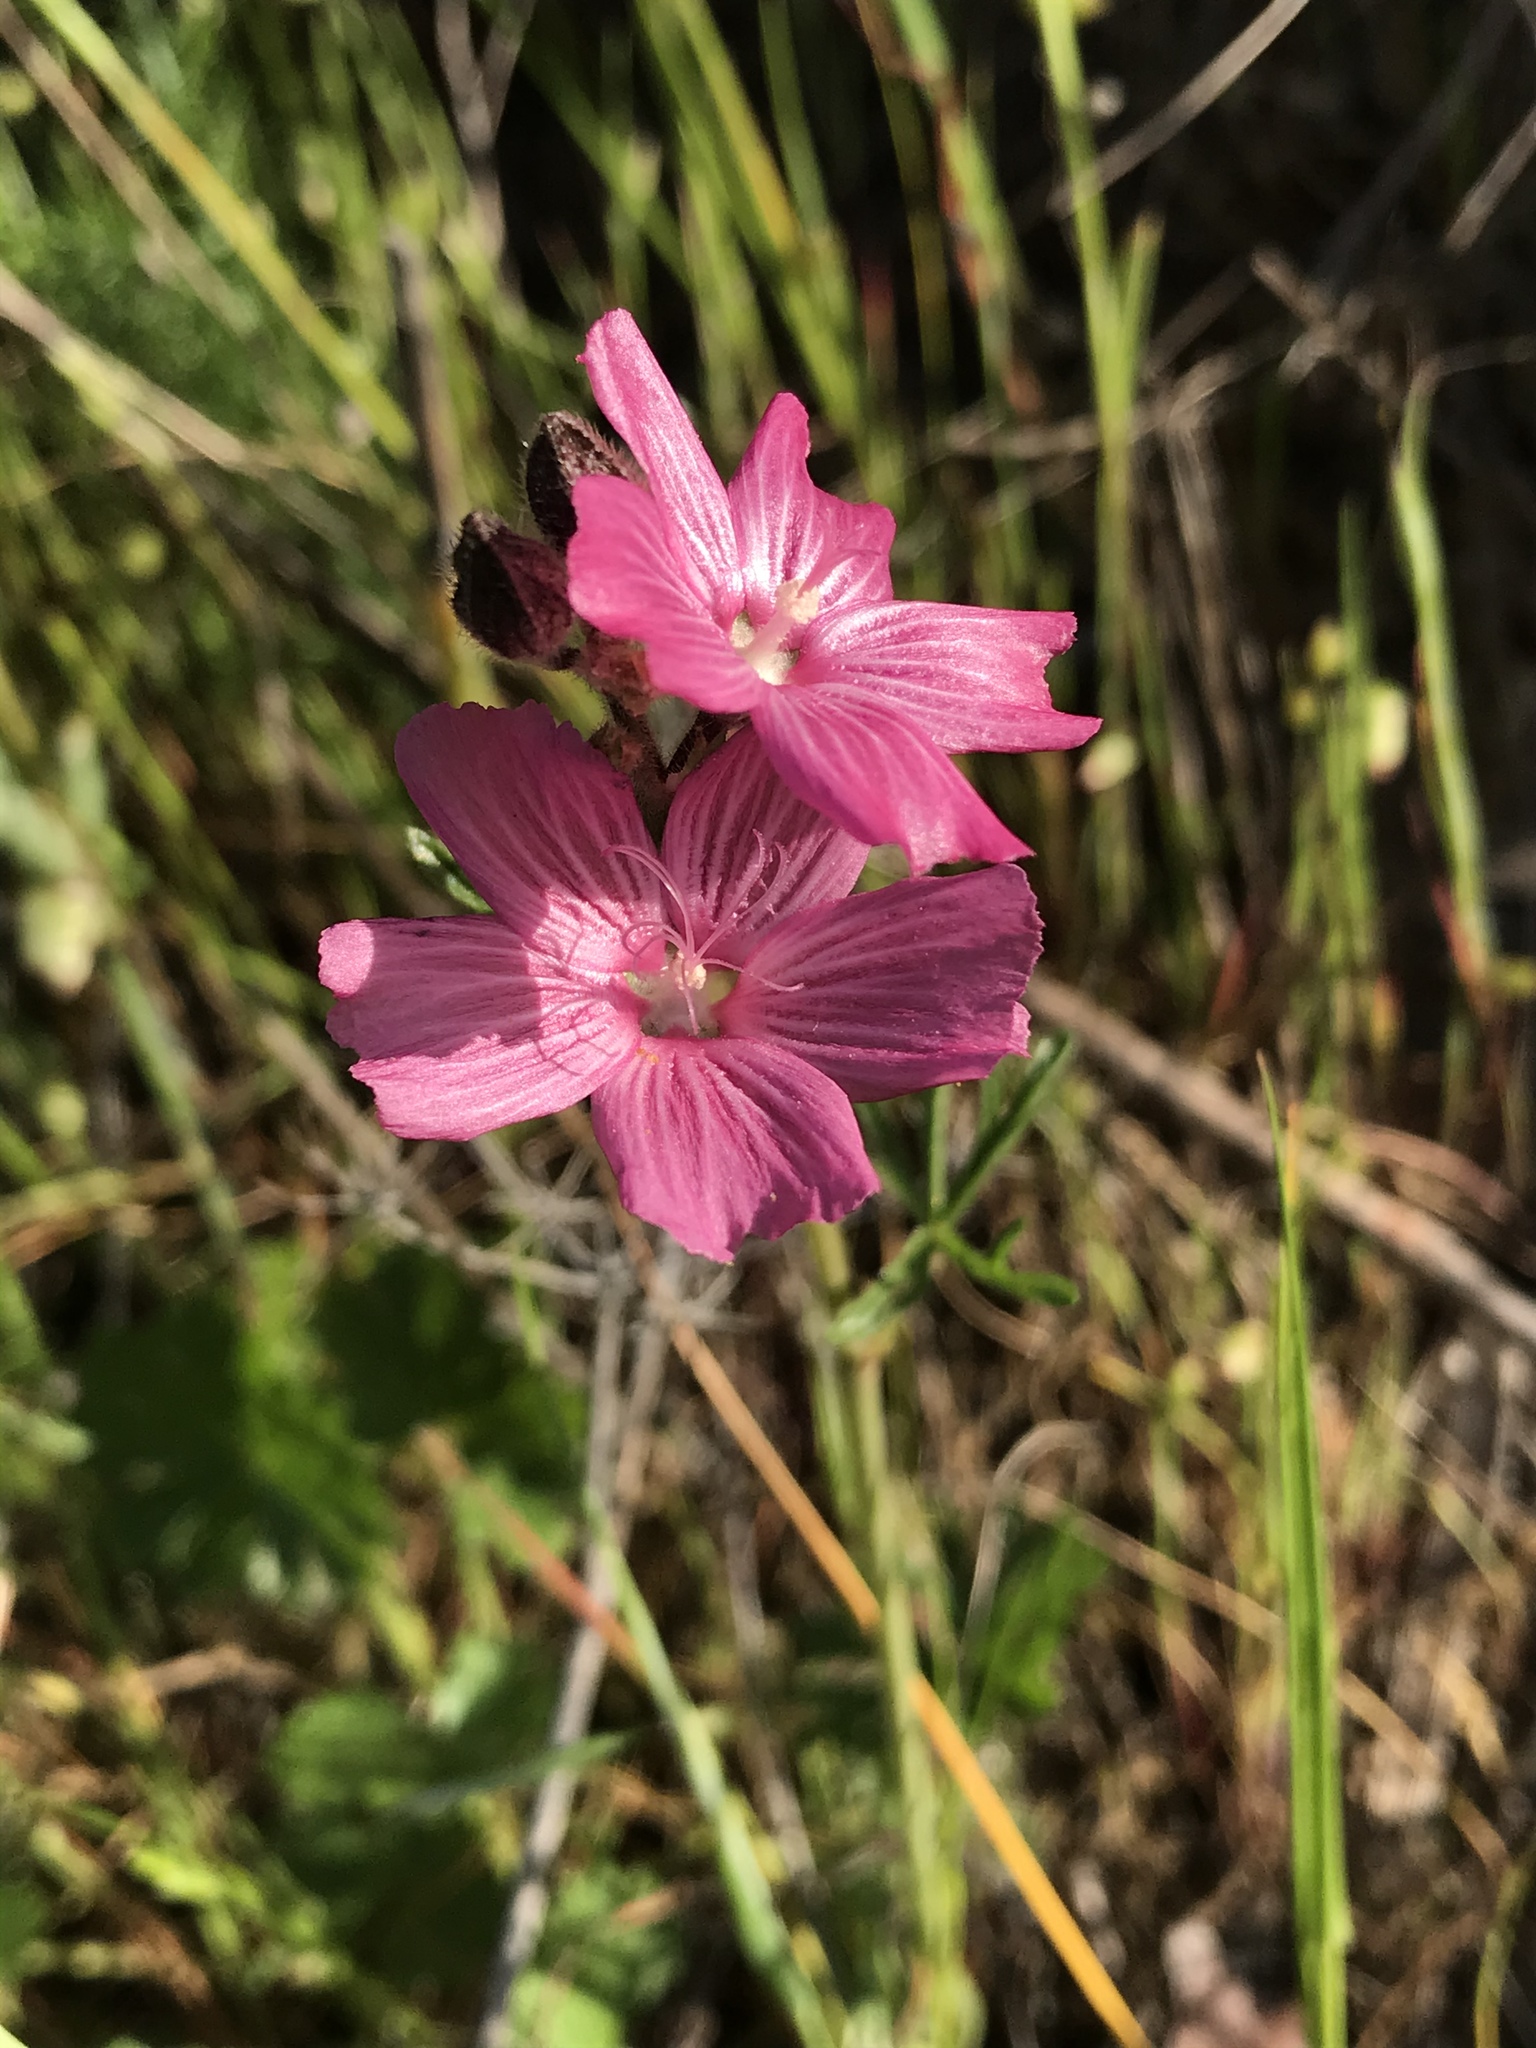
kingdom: Plantae
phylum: Tracheophyta
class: Magnoliopsida
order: Malvales
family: Malvaceae
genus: Sidalcea
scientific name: Sidalcea malviflora
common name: Greek mallow
